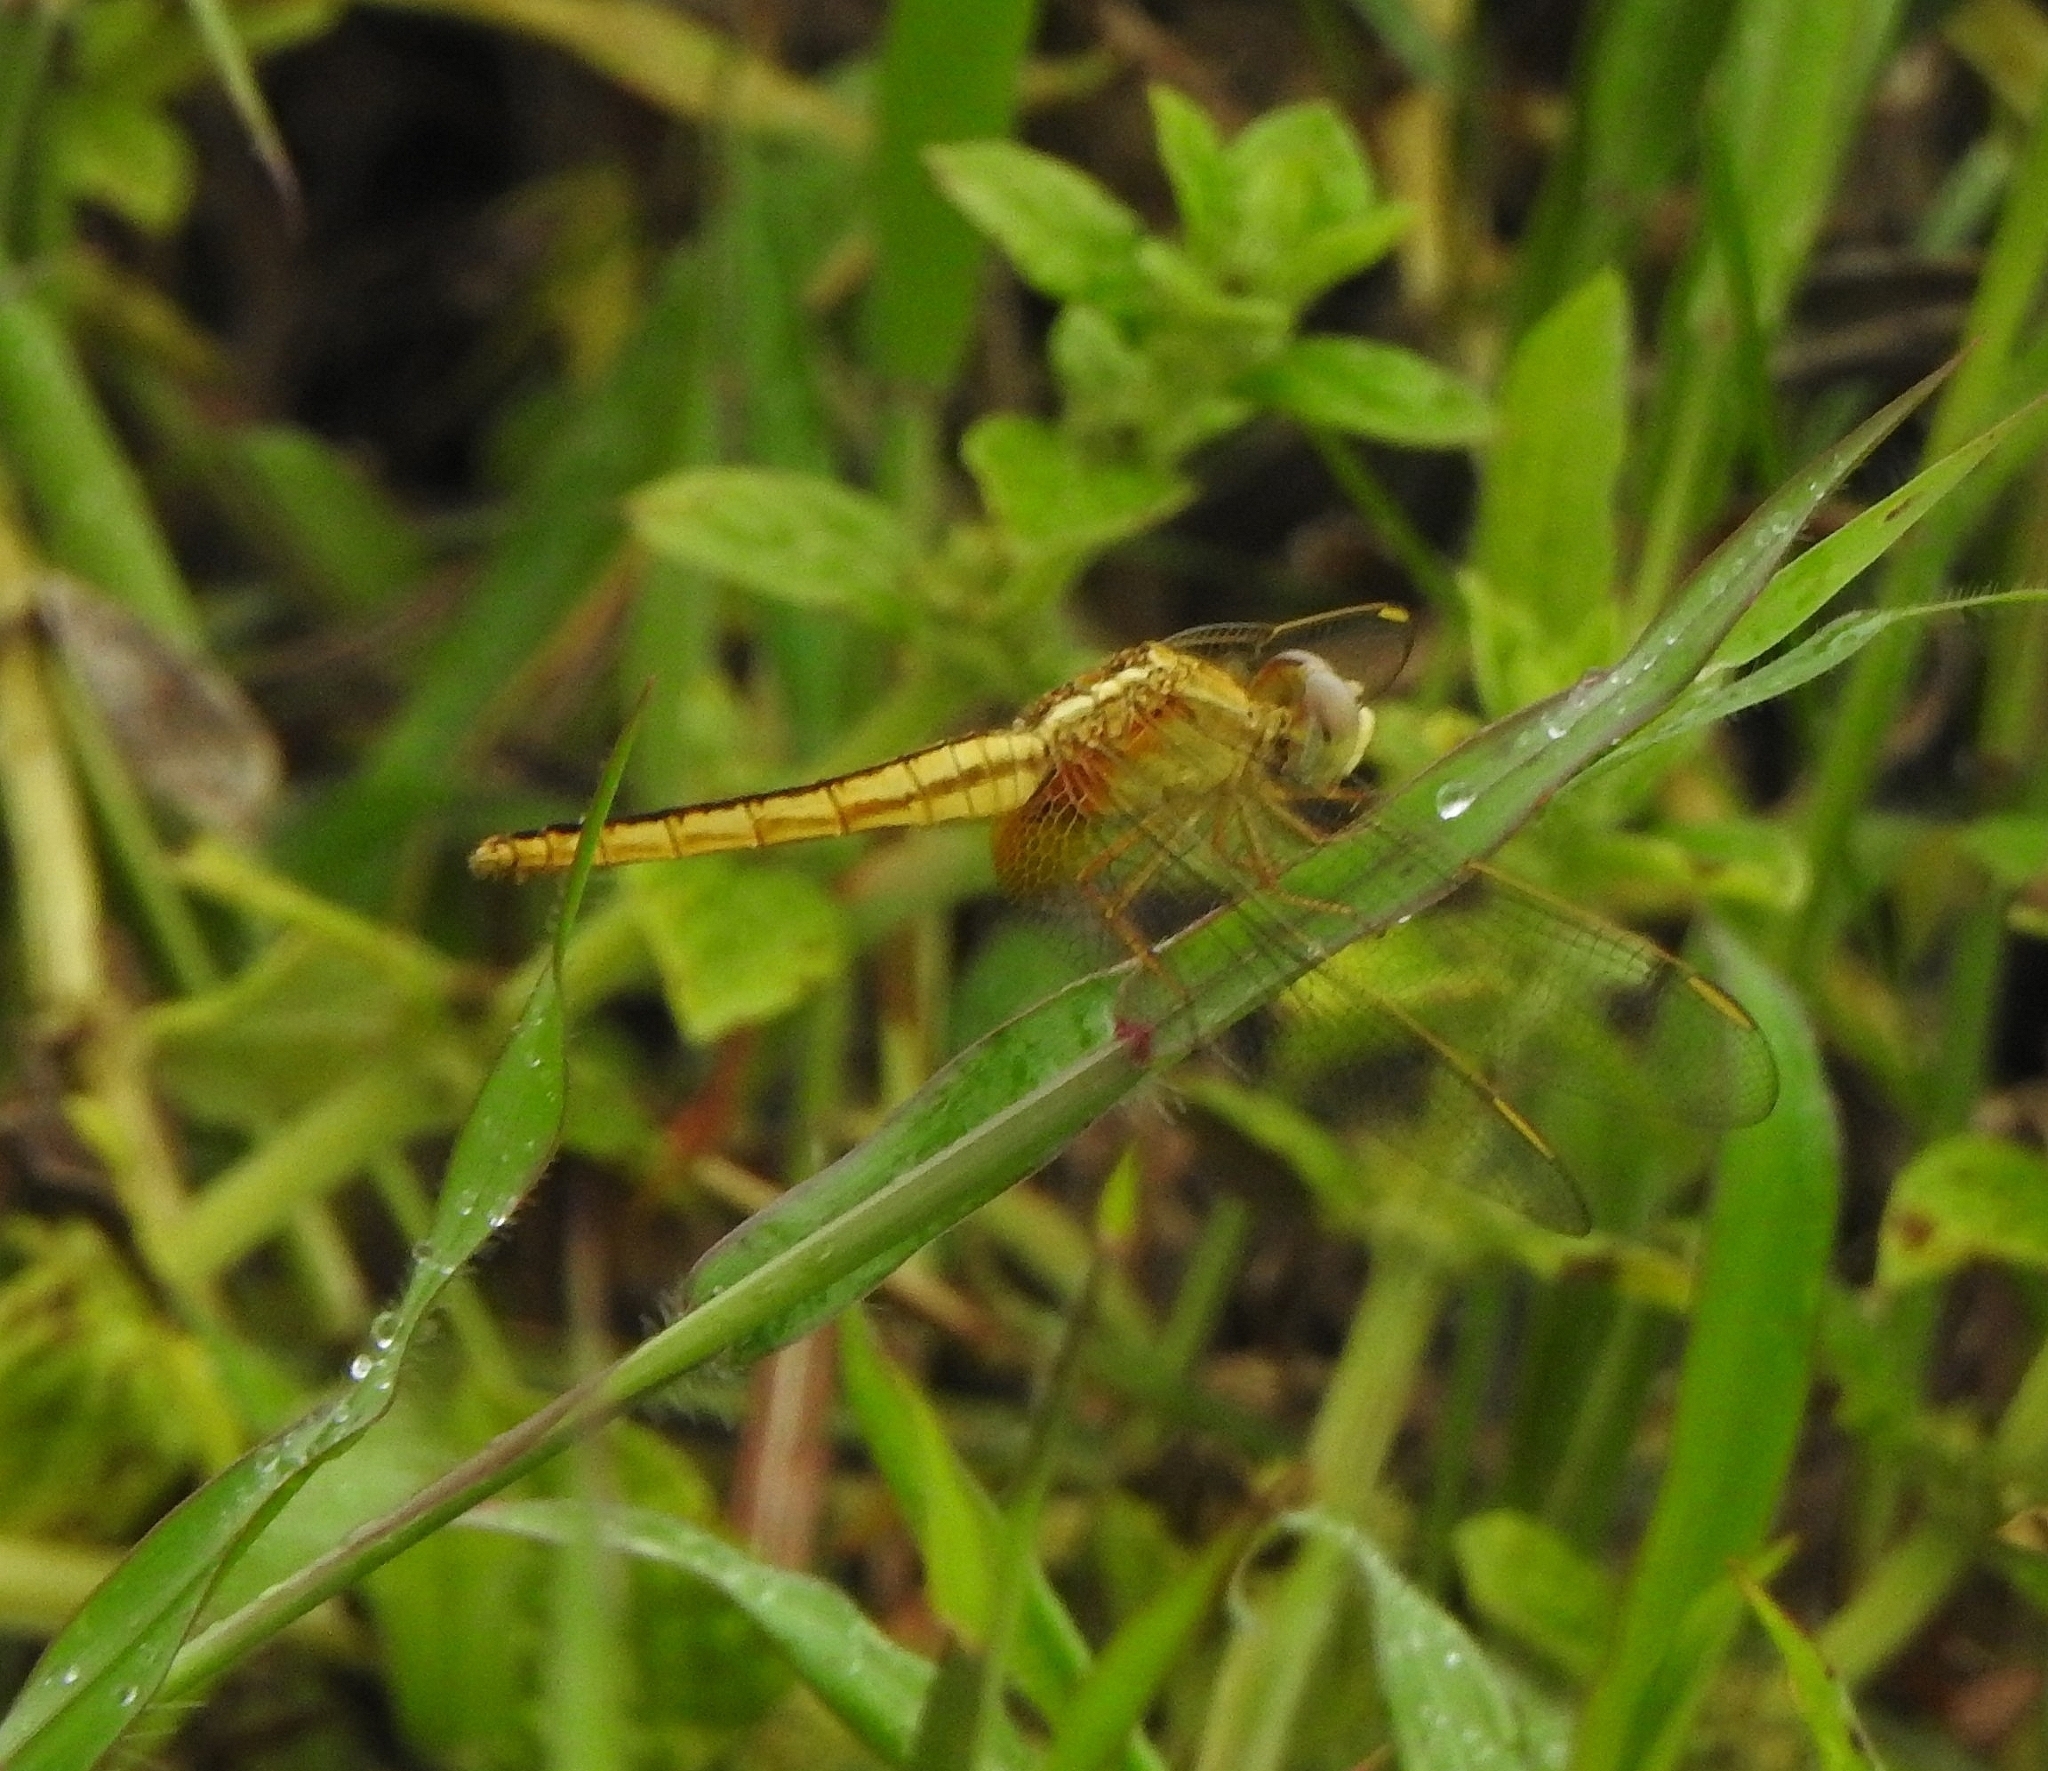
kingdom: Animalia
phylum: Arthropoda
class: Insecta
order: Odonata
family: Libellulidae
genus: Crocothemis
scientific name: Crocothemis servilia
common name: Scarlet skimmer
